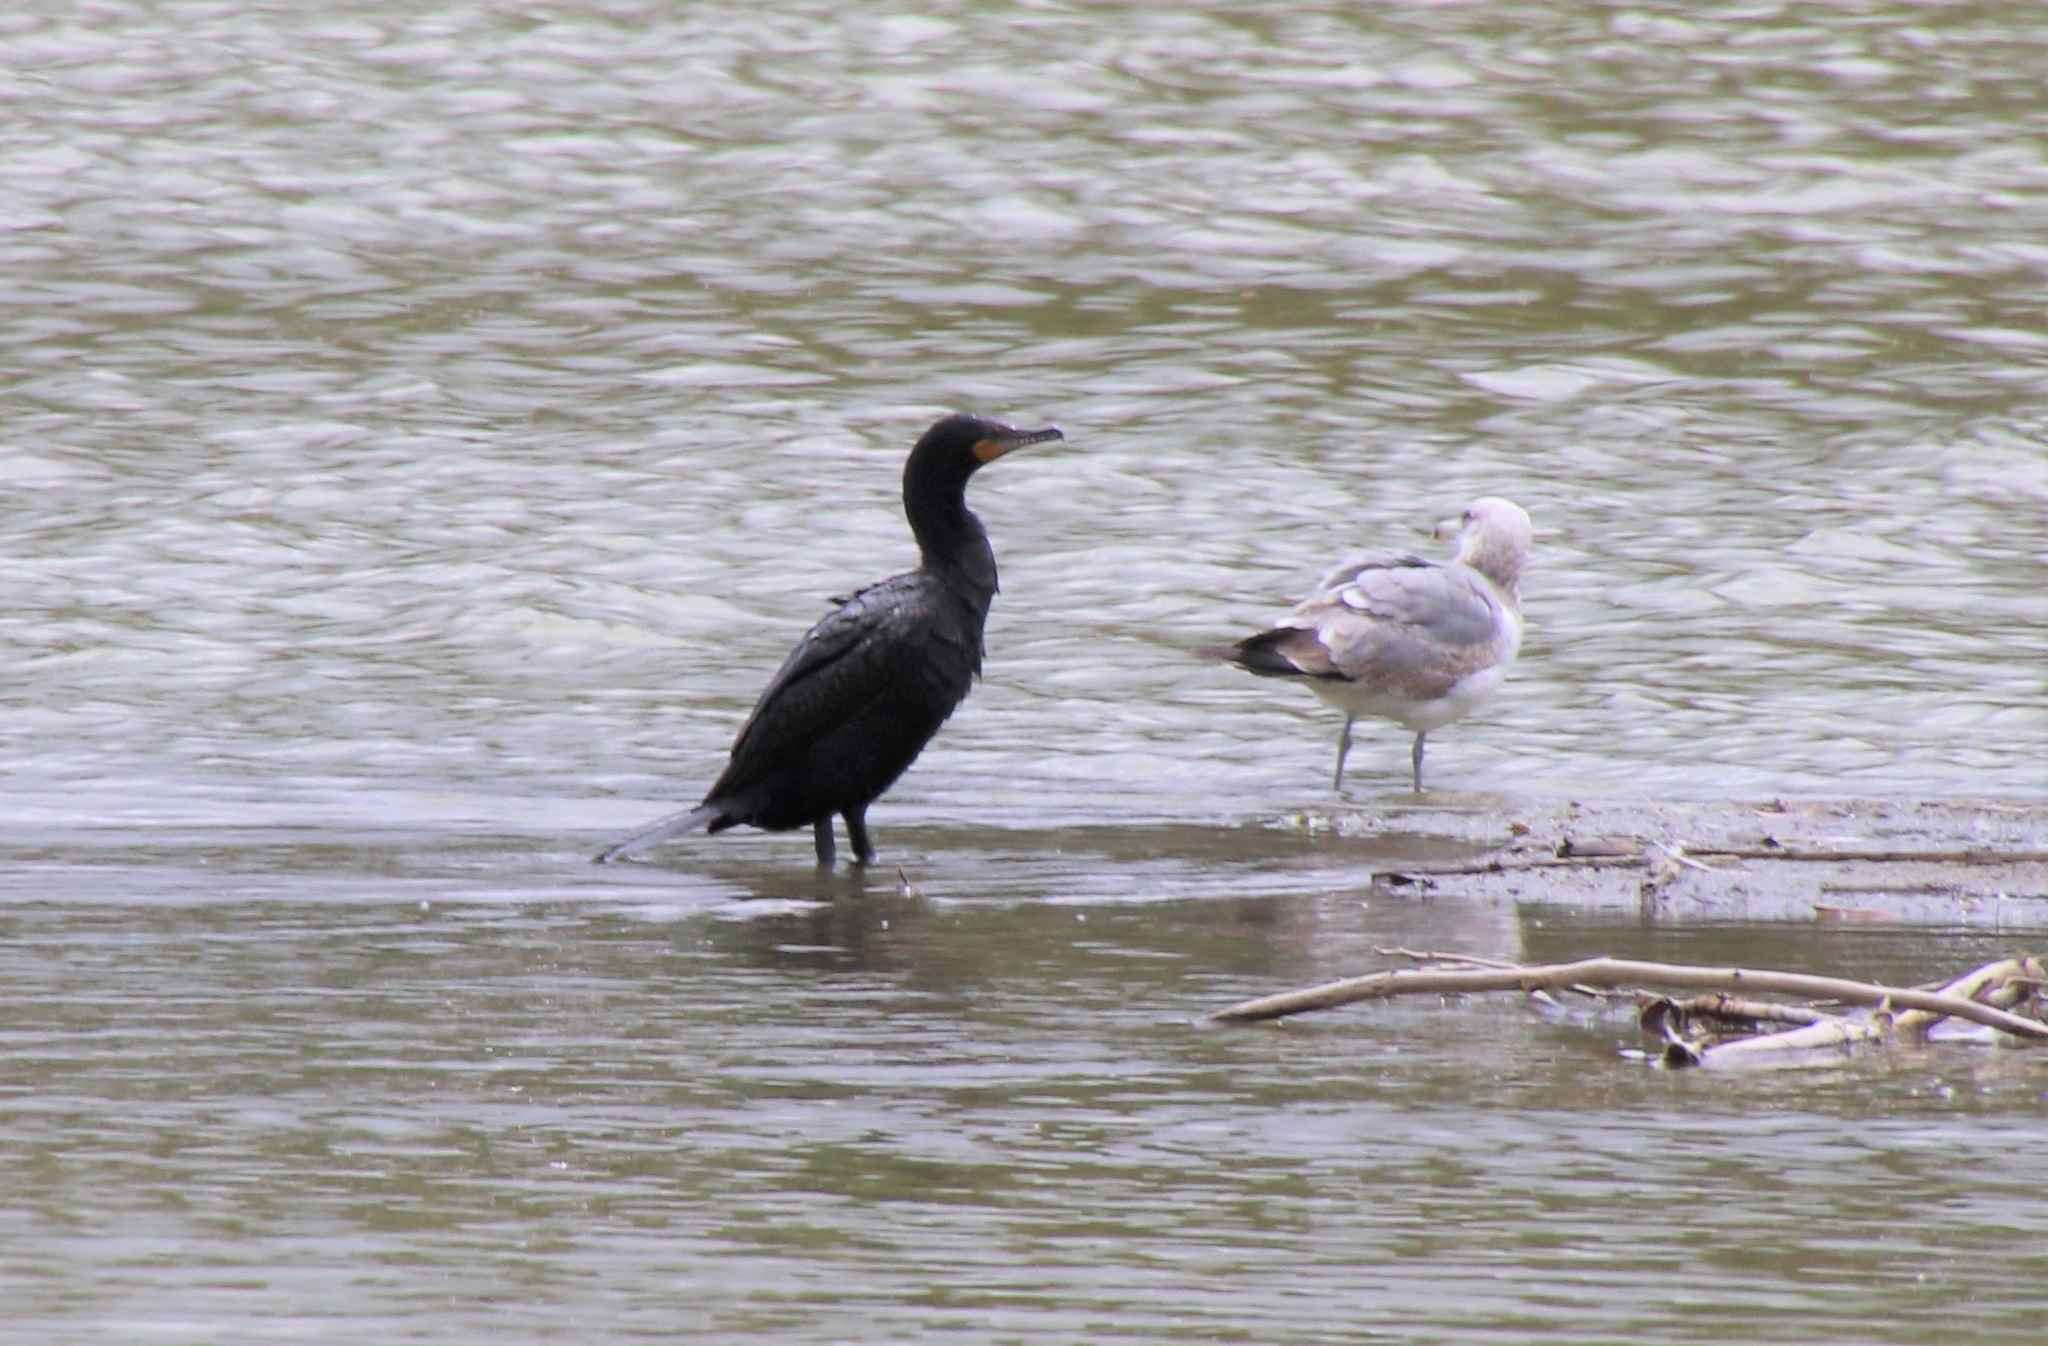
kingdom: Animalia
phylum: Chordata
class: Aves
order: Suliformes
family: Phalacrocoracidae
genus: Phalacrocorax
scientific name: Phalacrocorax auritus
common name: Double-crested cormorant
